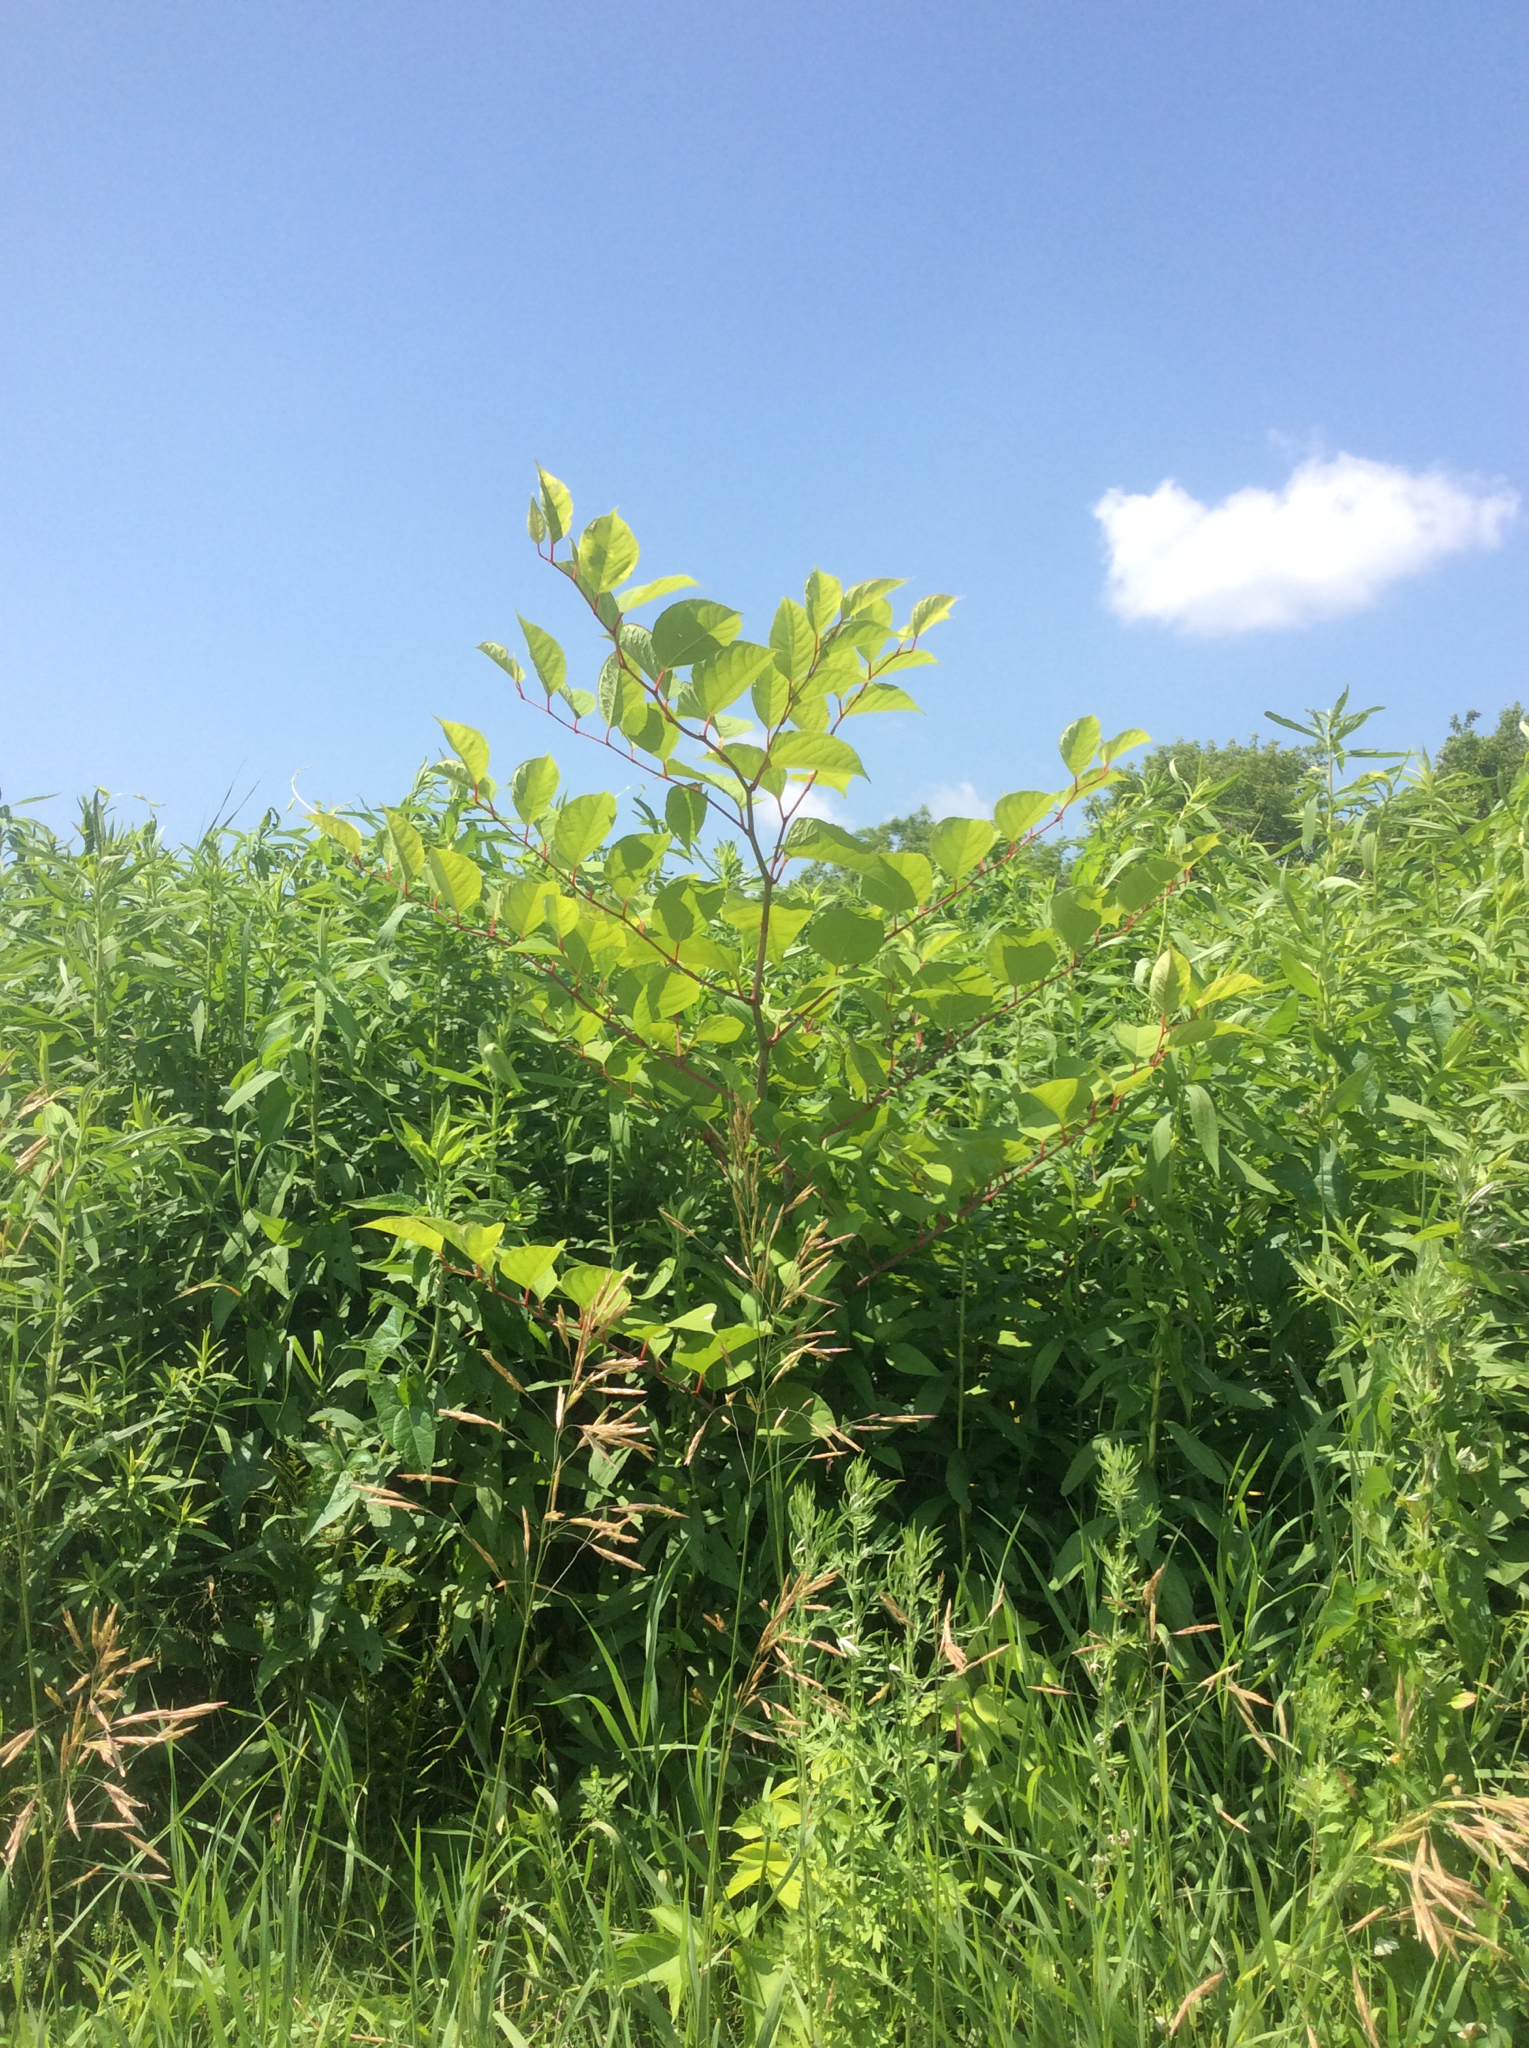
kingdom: Plantae
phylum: Tracheophyta
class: Magnoliopsida
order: Caryophyllales
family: Polygonaceae
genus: Reynoutria
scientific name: Reynoutria japonica
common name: Japanese knotweed
